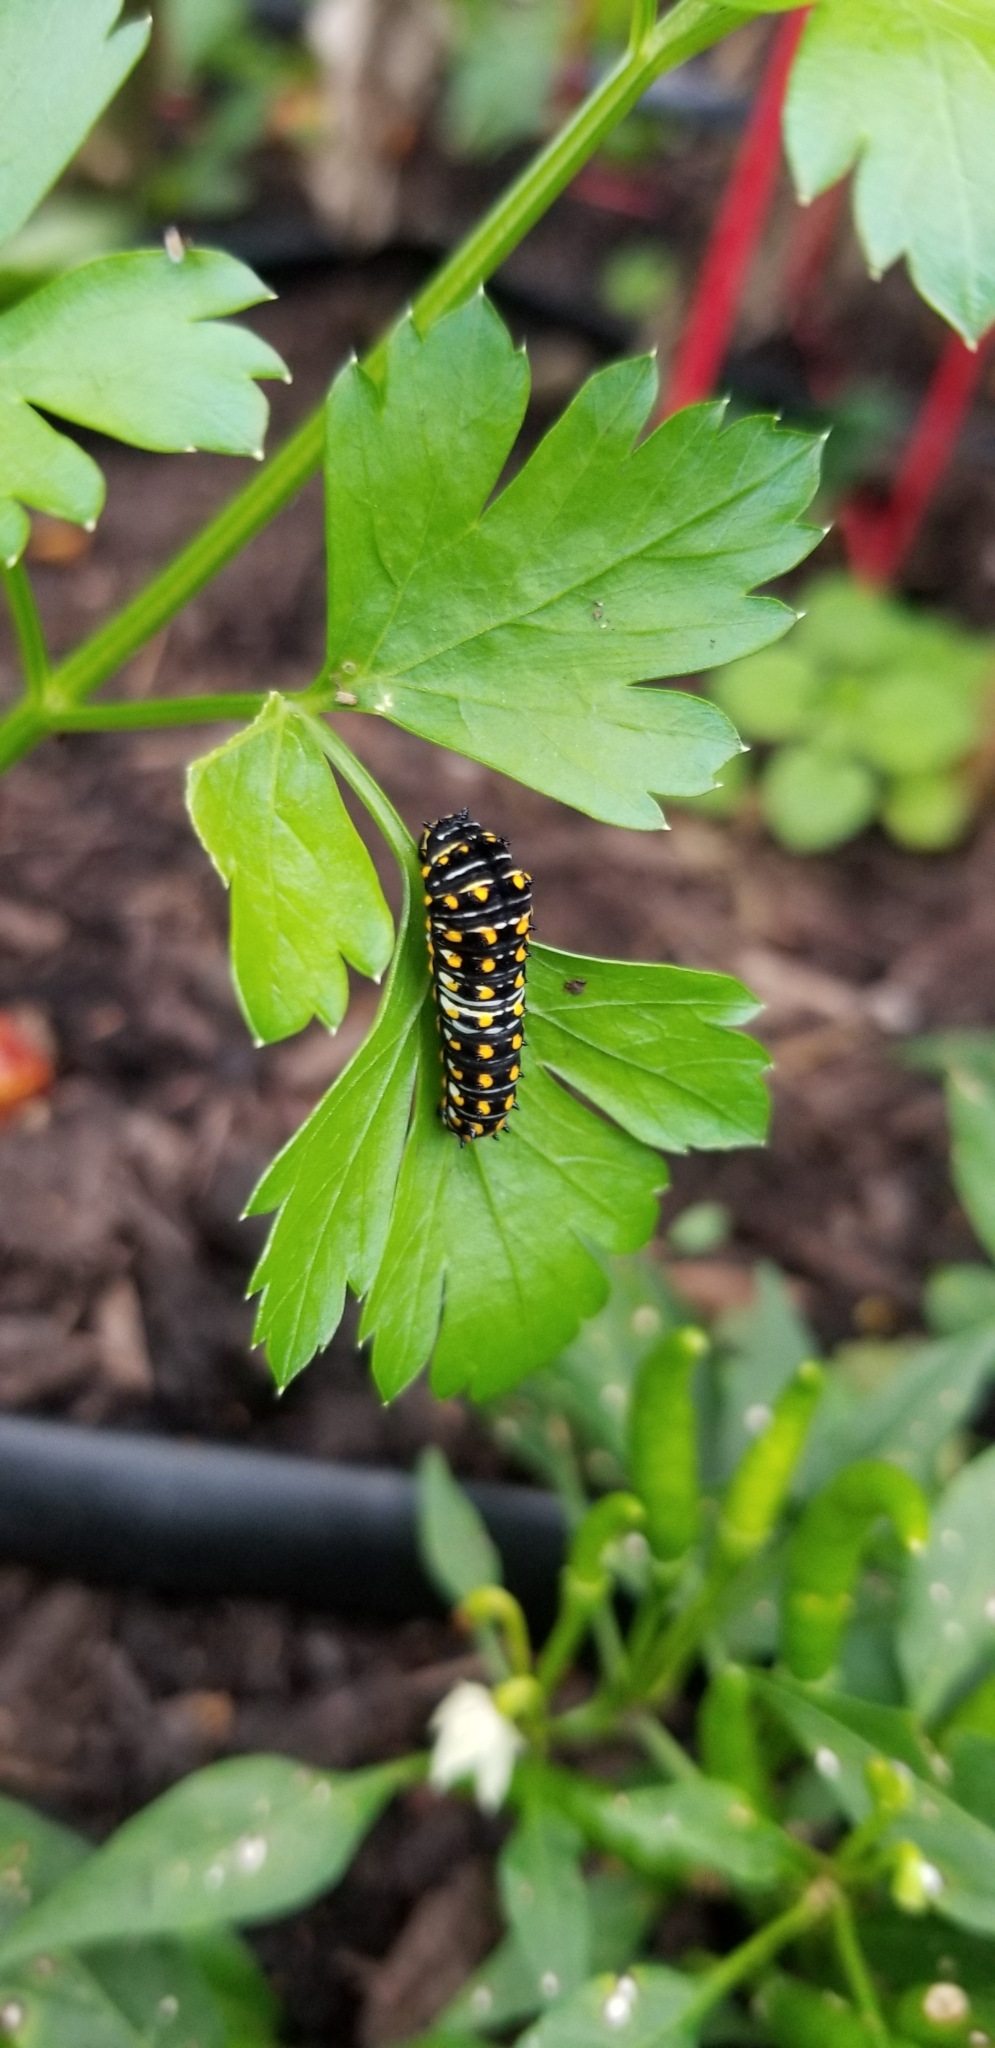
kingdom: Animalia
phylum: Arthropoda
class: Insecta
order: Lepidoptera
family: Papilionidae
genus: Papilio
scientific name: Papilio polyxenes
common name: Black swallowtail
